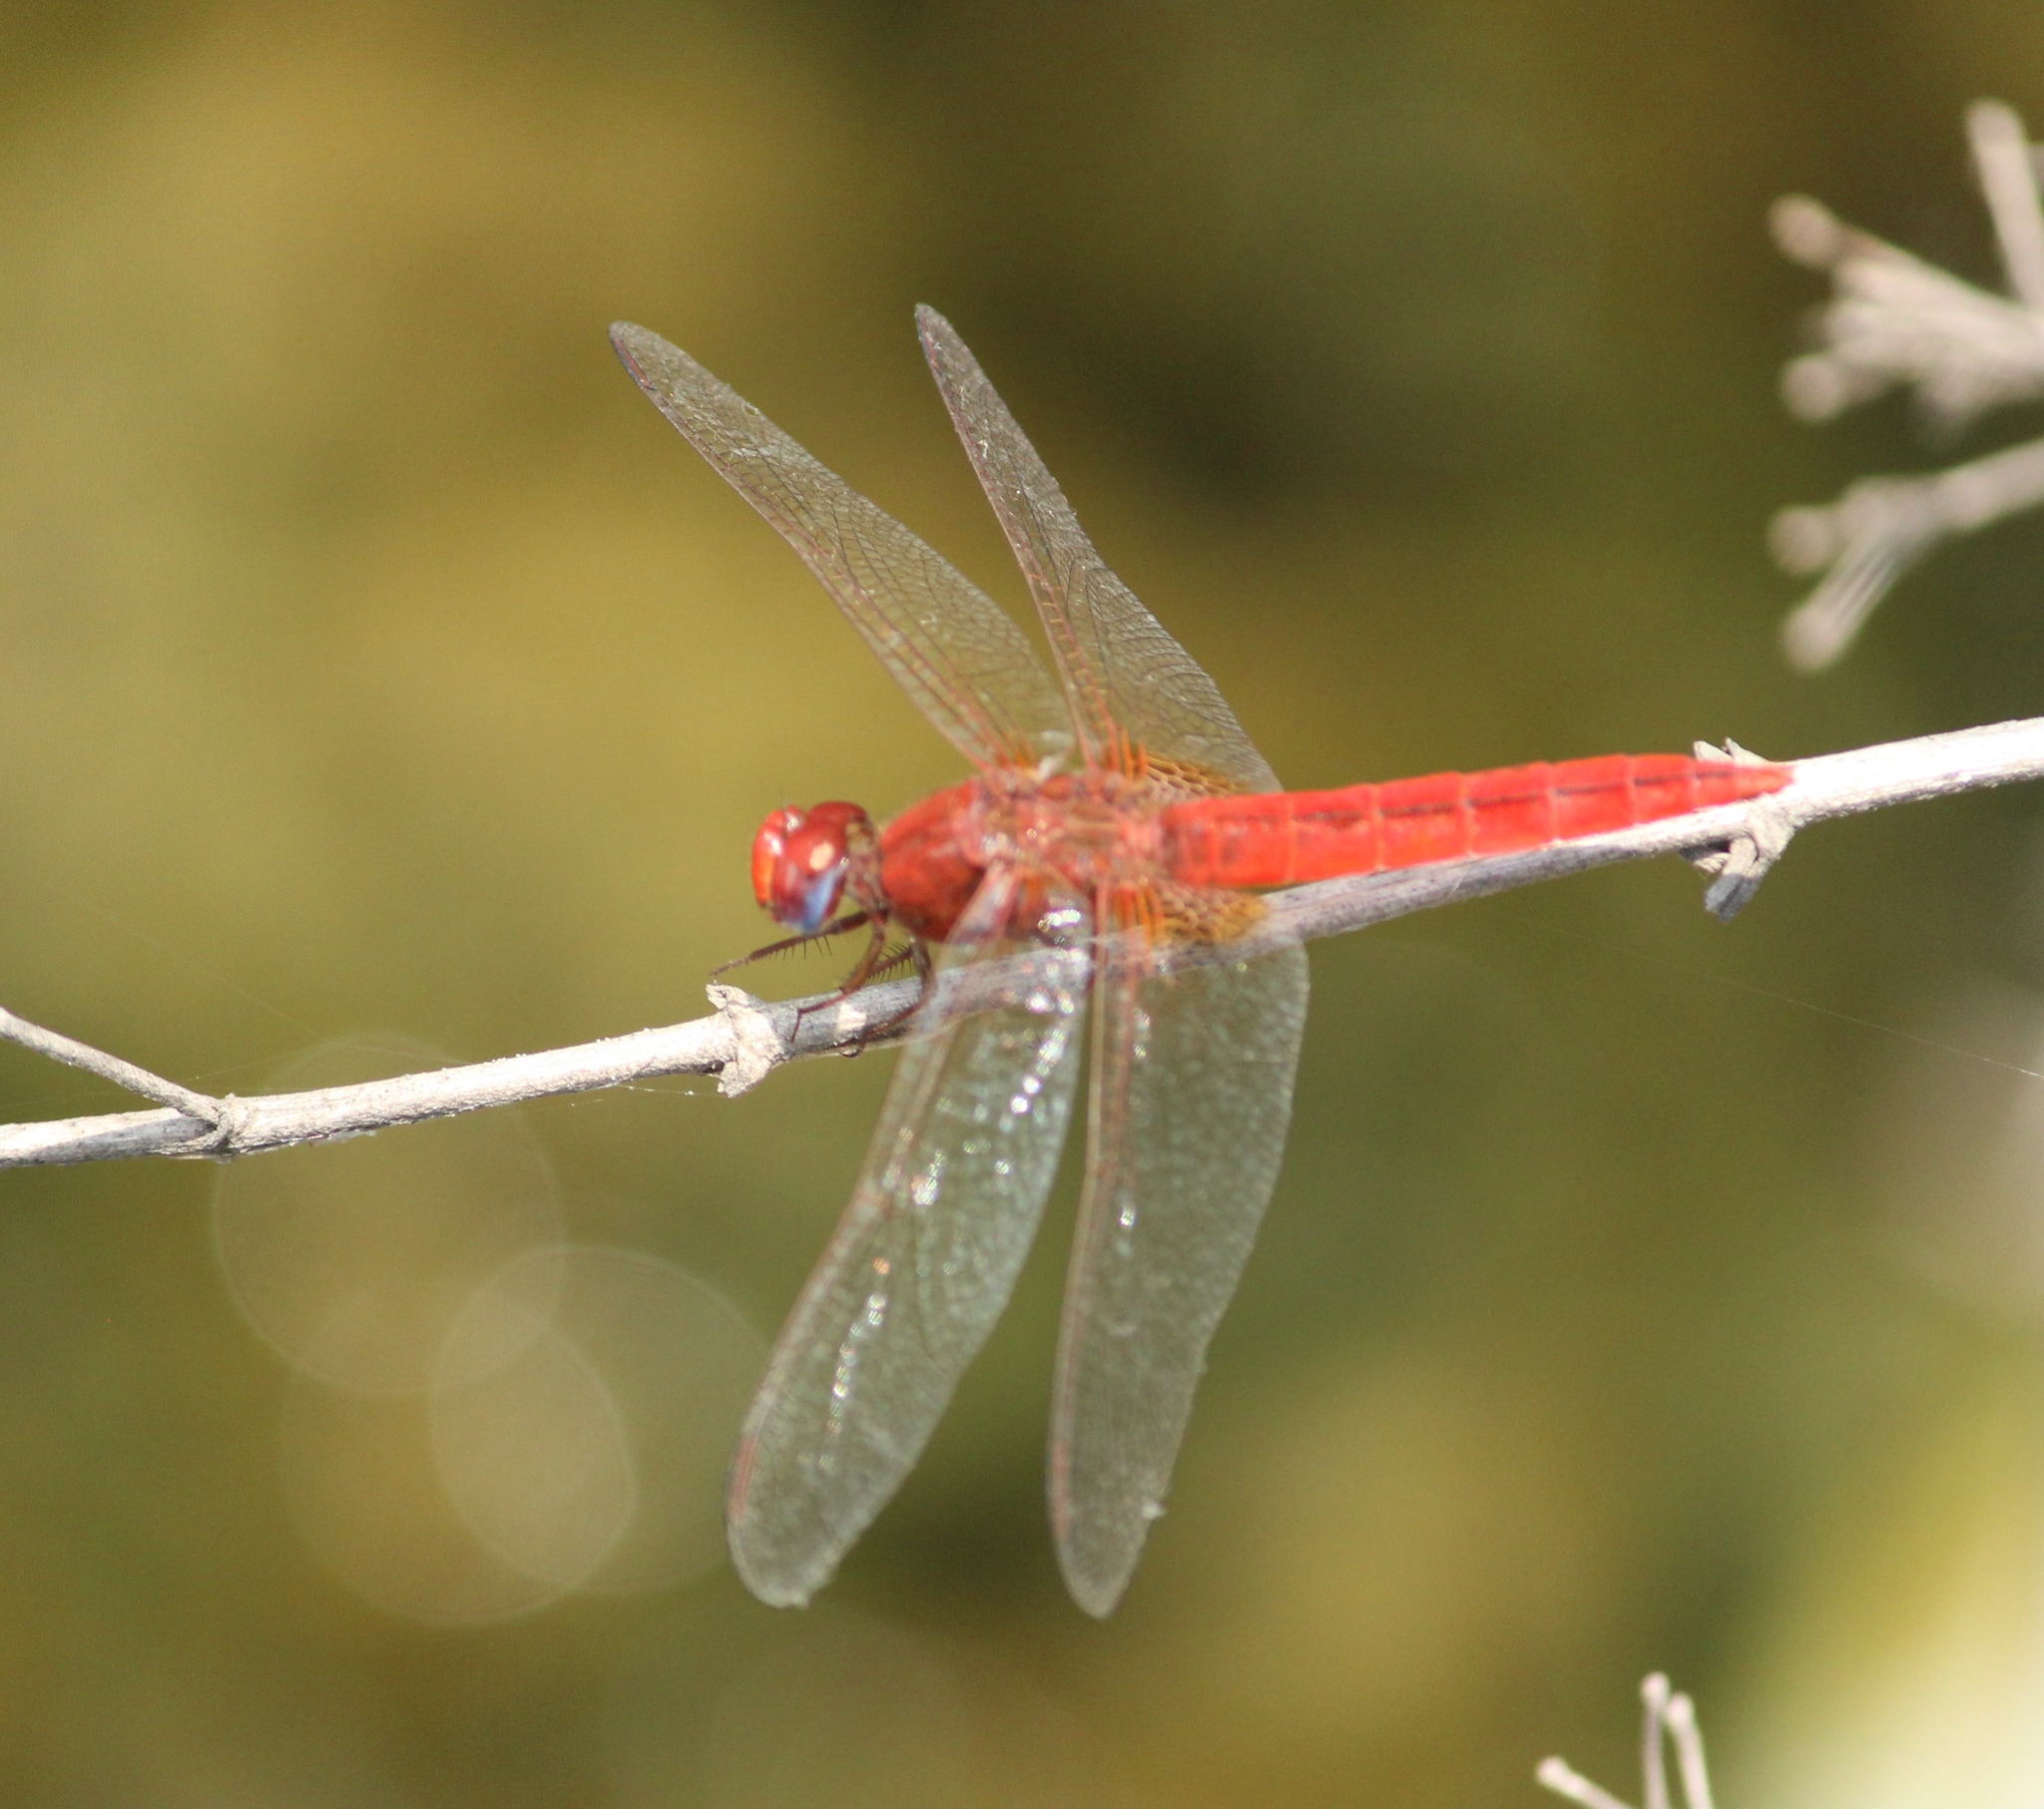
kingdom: Animalia
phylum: Arthropoda
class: Insecta
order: Odonata
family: Libellulidae
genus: Crocothemis
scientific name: Crocothemis servilia
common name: Scarlet skimmer
